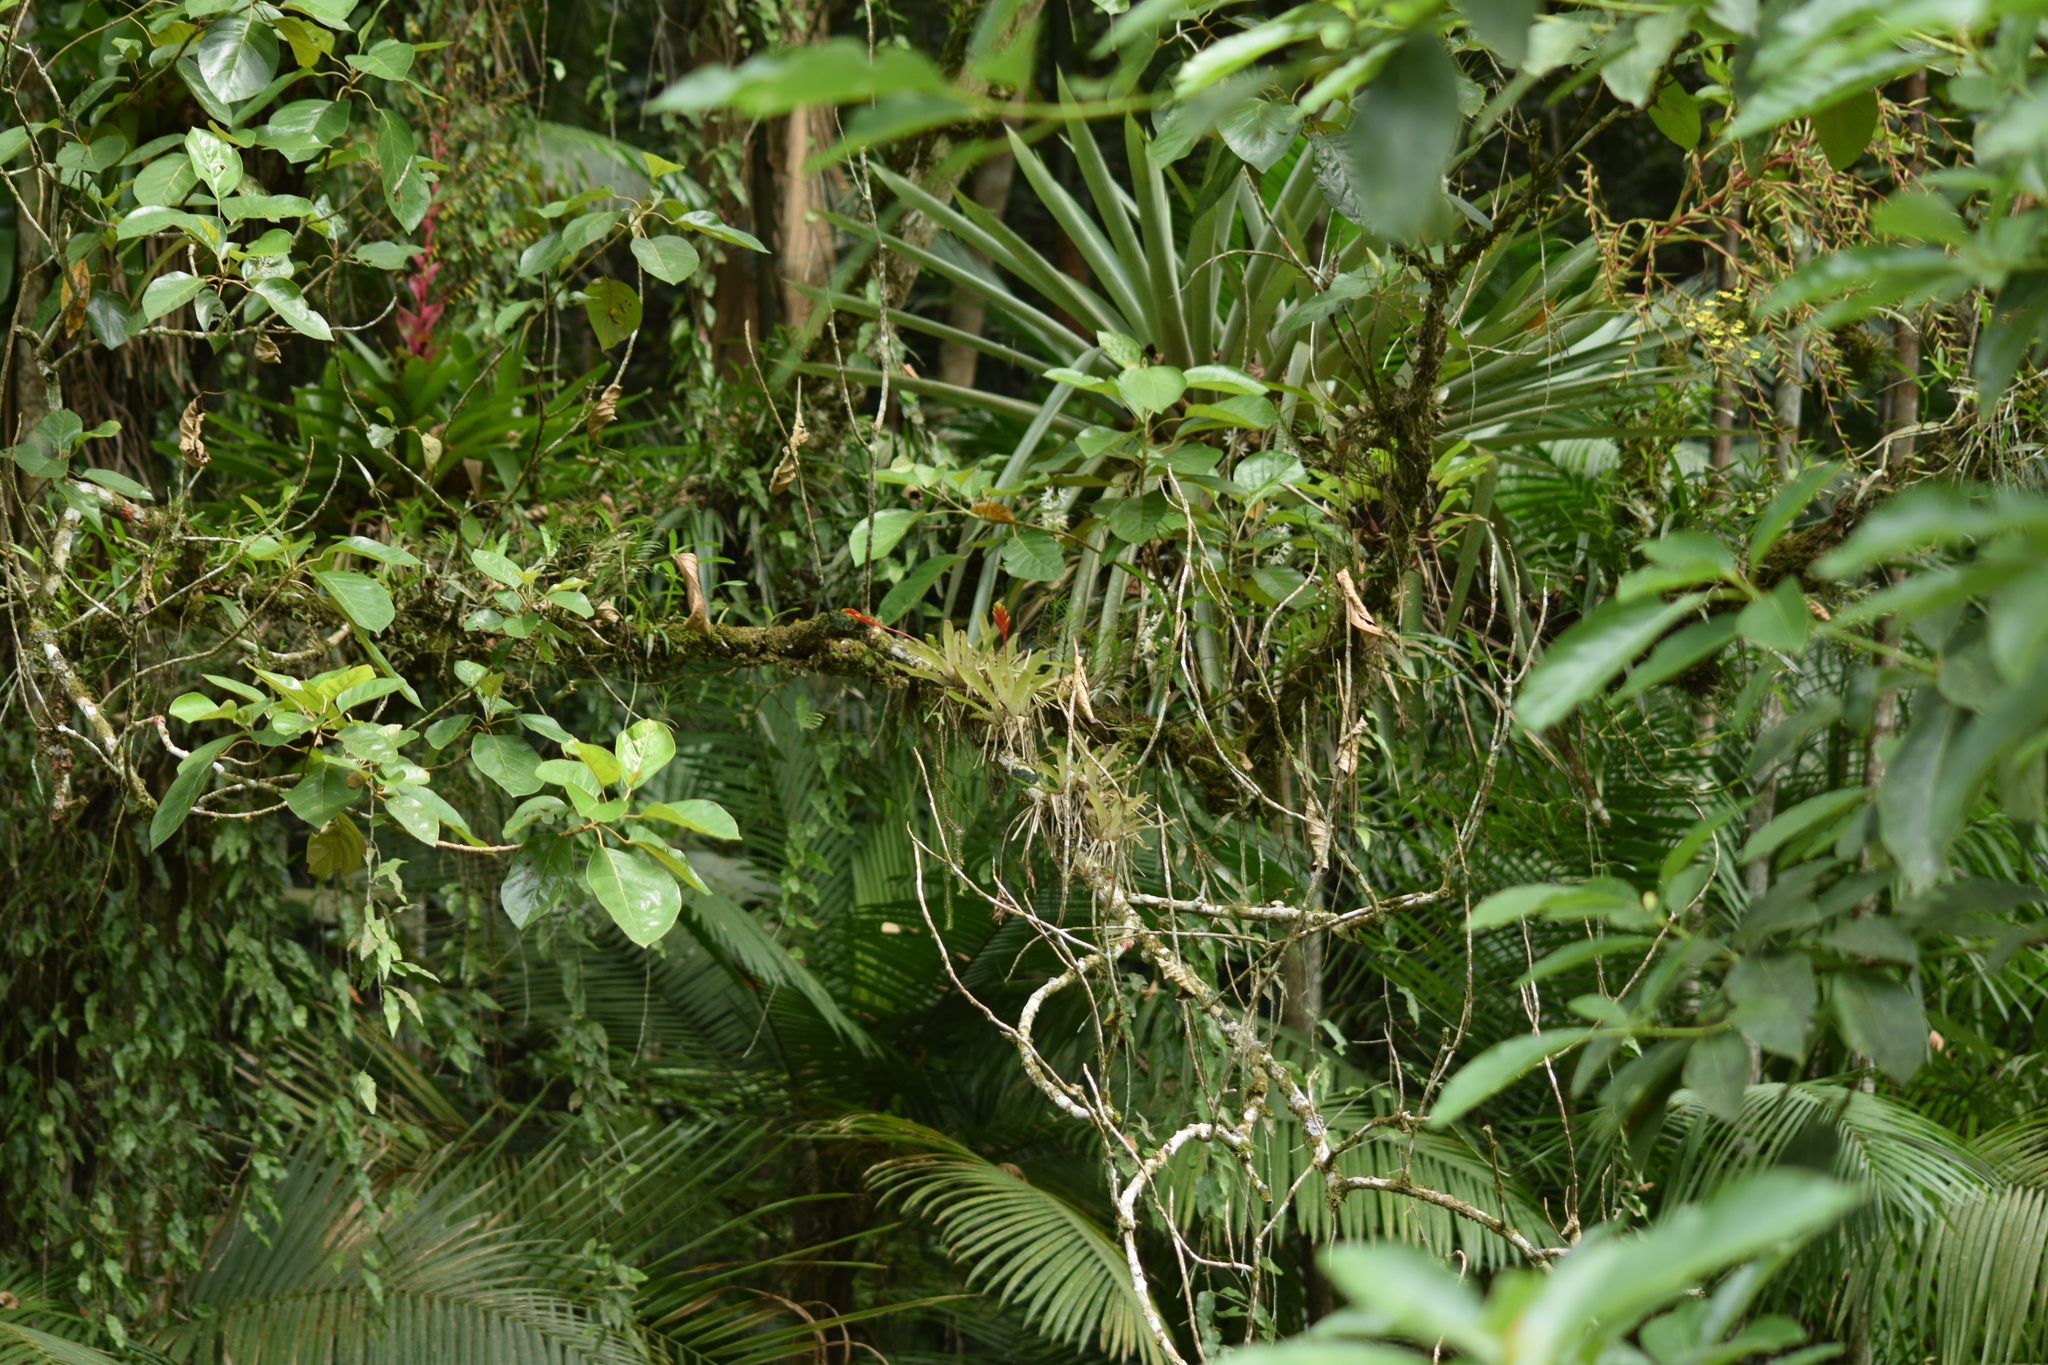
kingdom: Plantae
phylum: Tracheophyta
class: Liliopsida
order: Poales
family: Bromeliaceae
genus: Vriesea
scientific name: Vriesea carinata
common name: Lobster-claws
